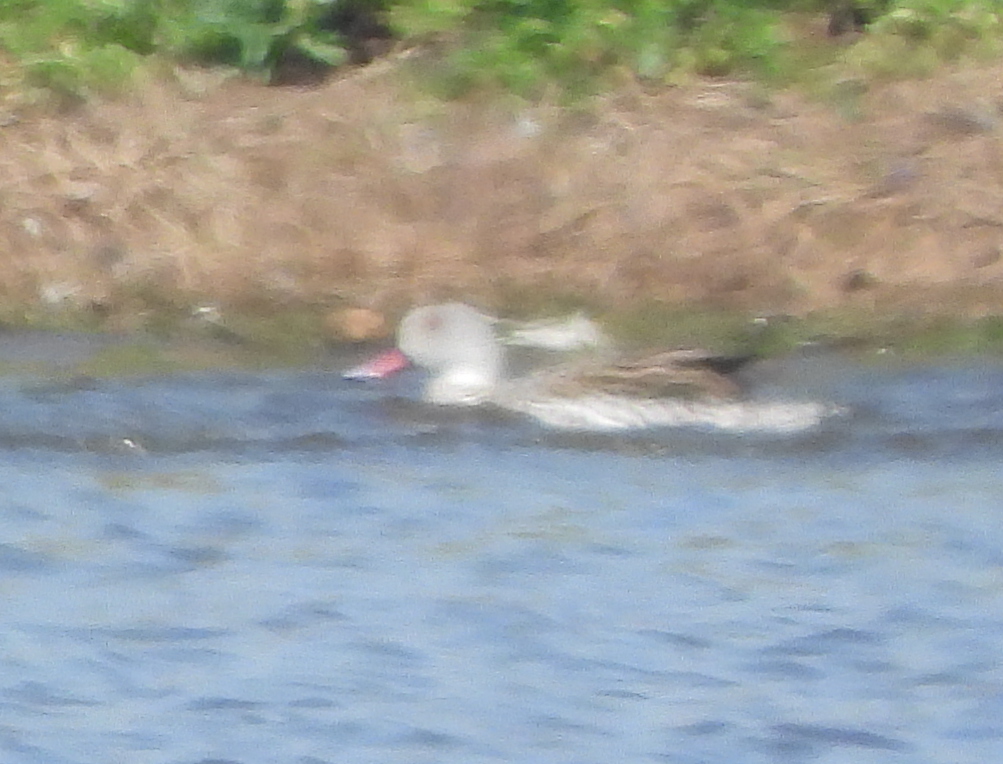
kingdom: Animalia
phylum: Chordata
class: Aves
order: Anseriformes
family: Anatidae
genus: Anas
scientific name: Anas capensis
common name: Cape teal
